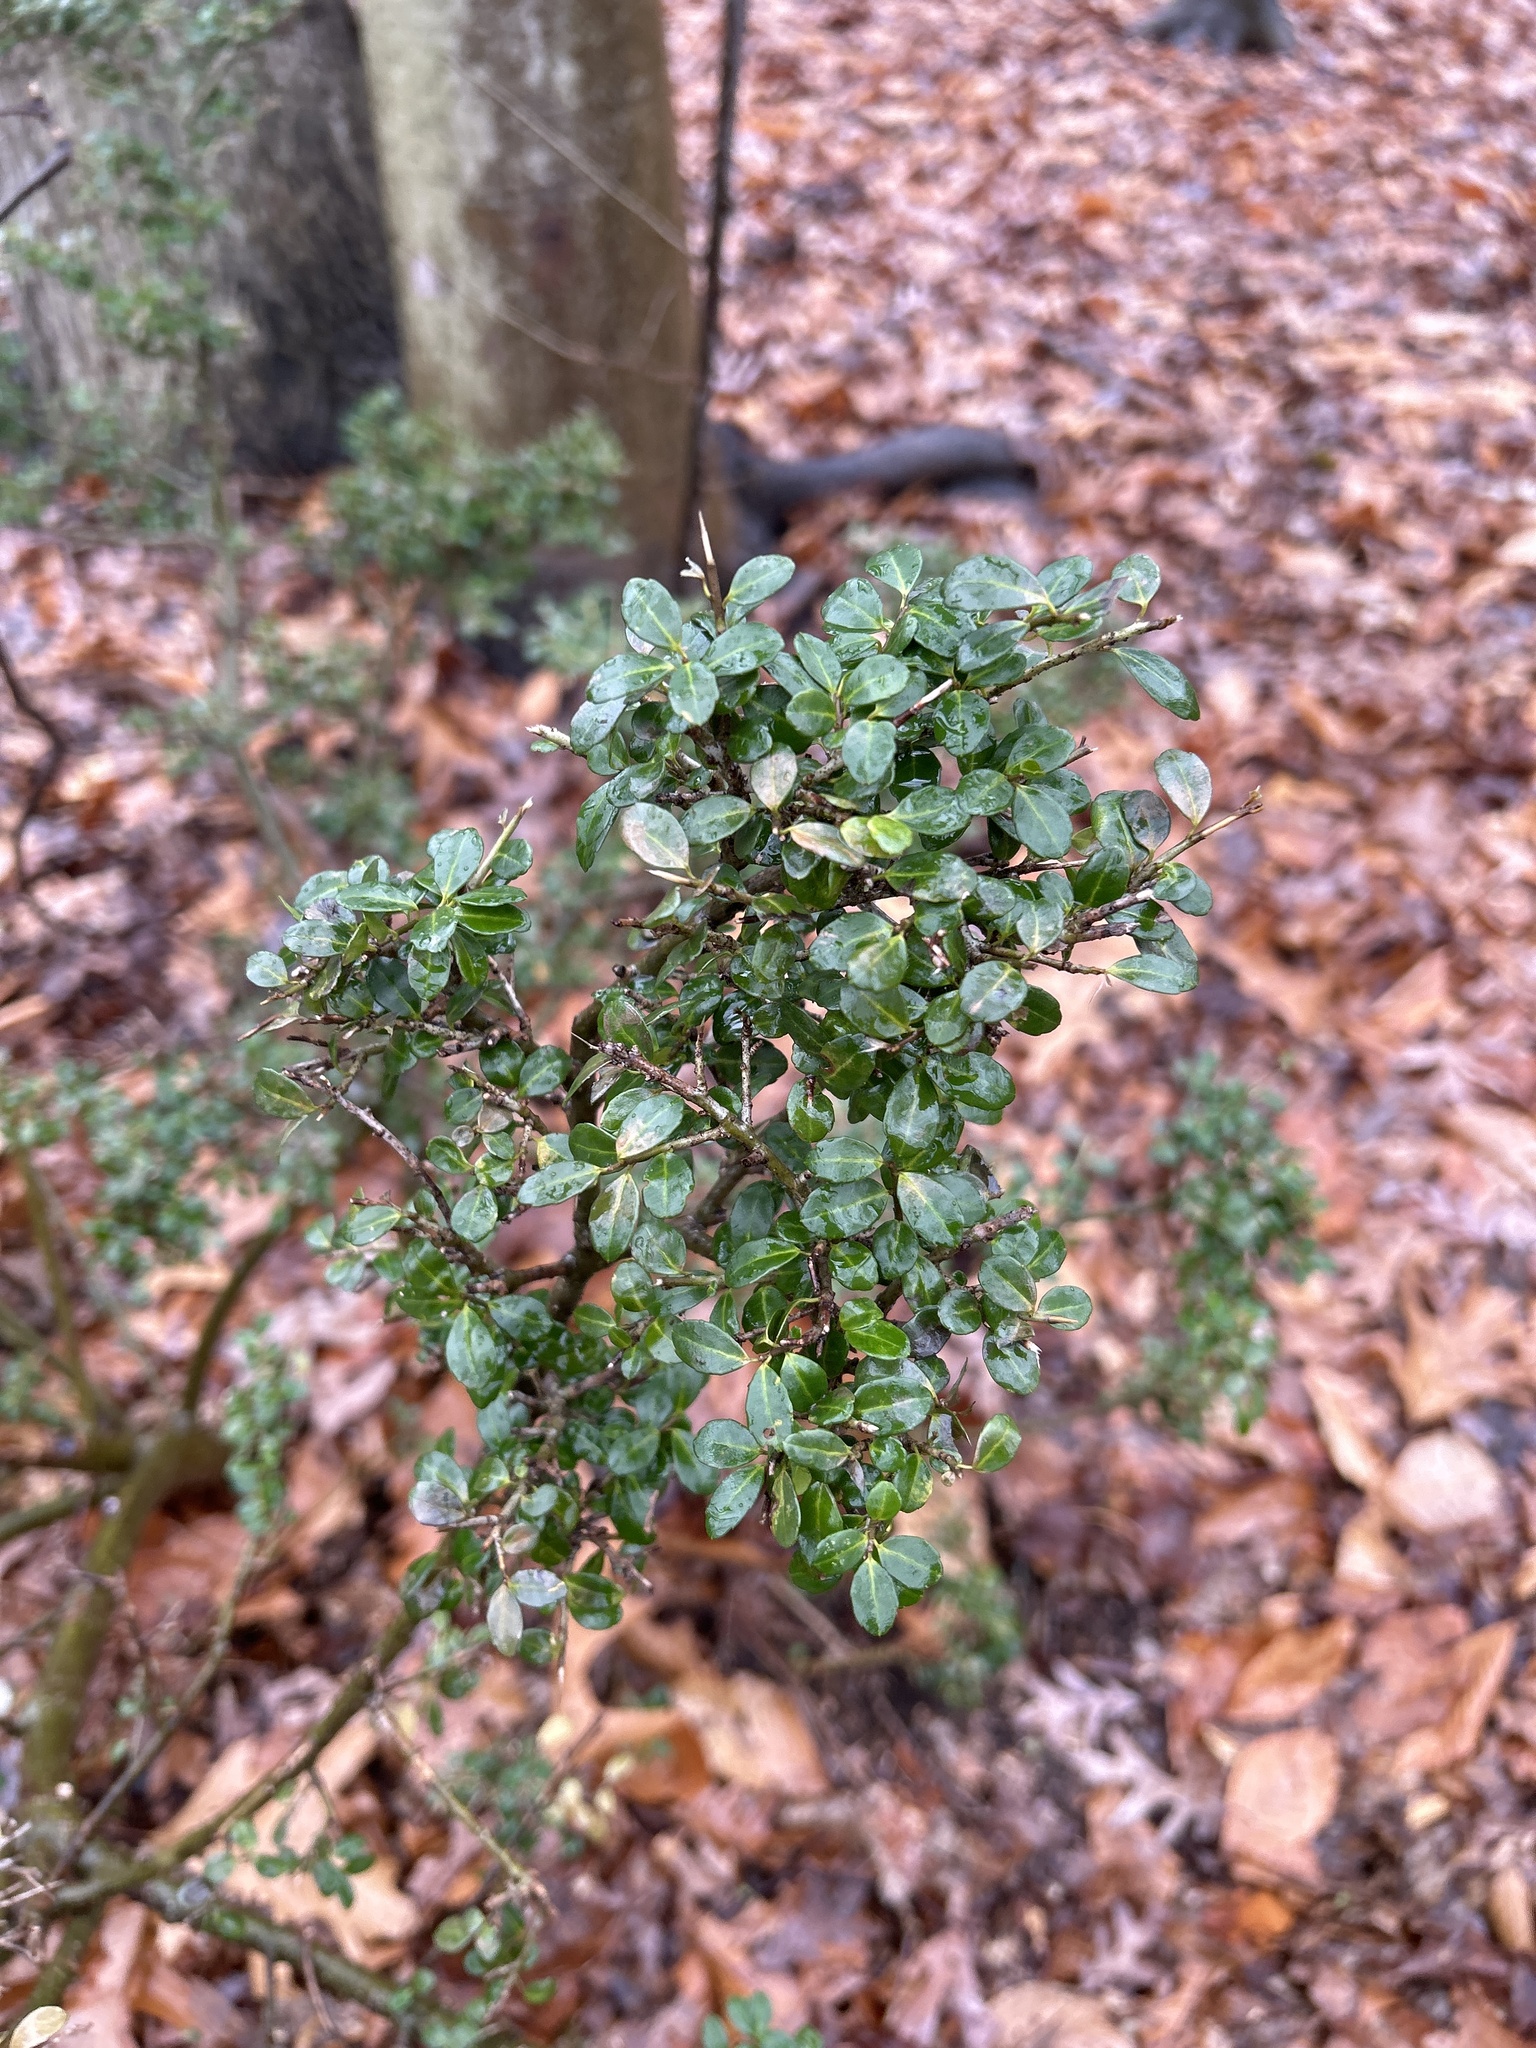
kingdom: Plantae
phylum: Tracheophyta
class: Magnoliopsida
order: Aquifoliales
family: Aquifoliaceae
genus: Ilex
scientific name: Ilex crenata
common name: Japanese holly
